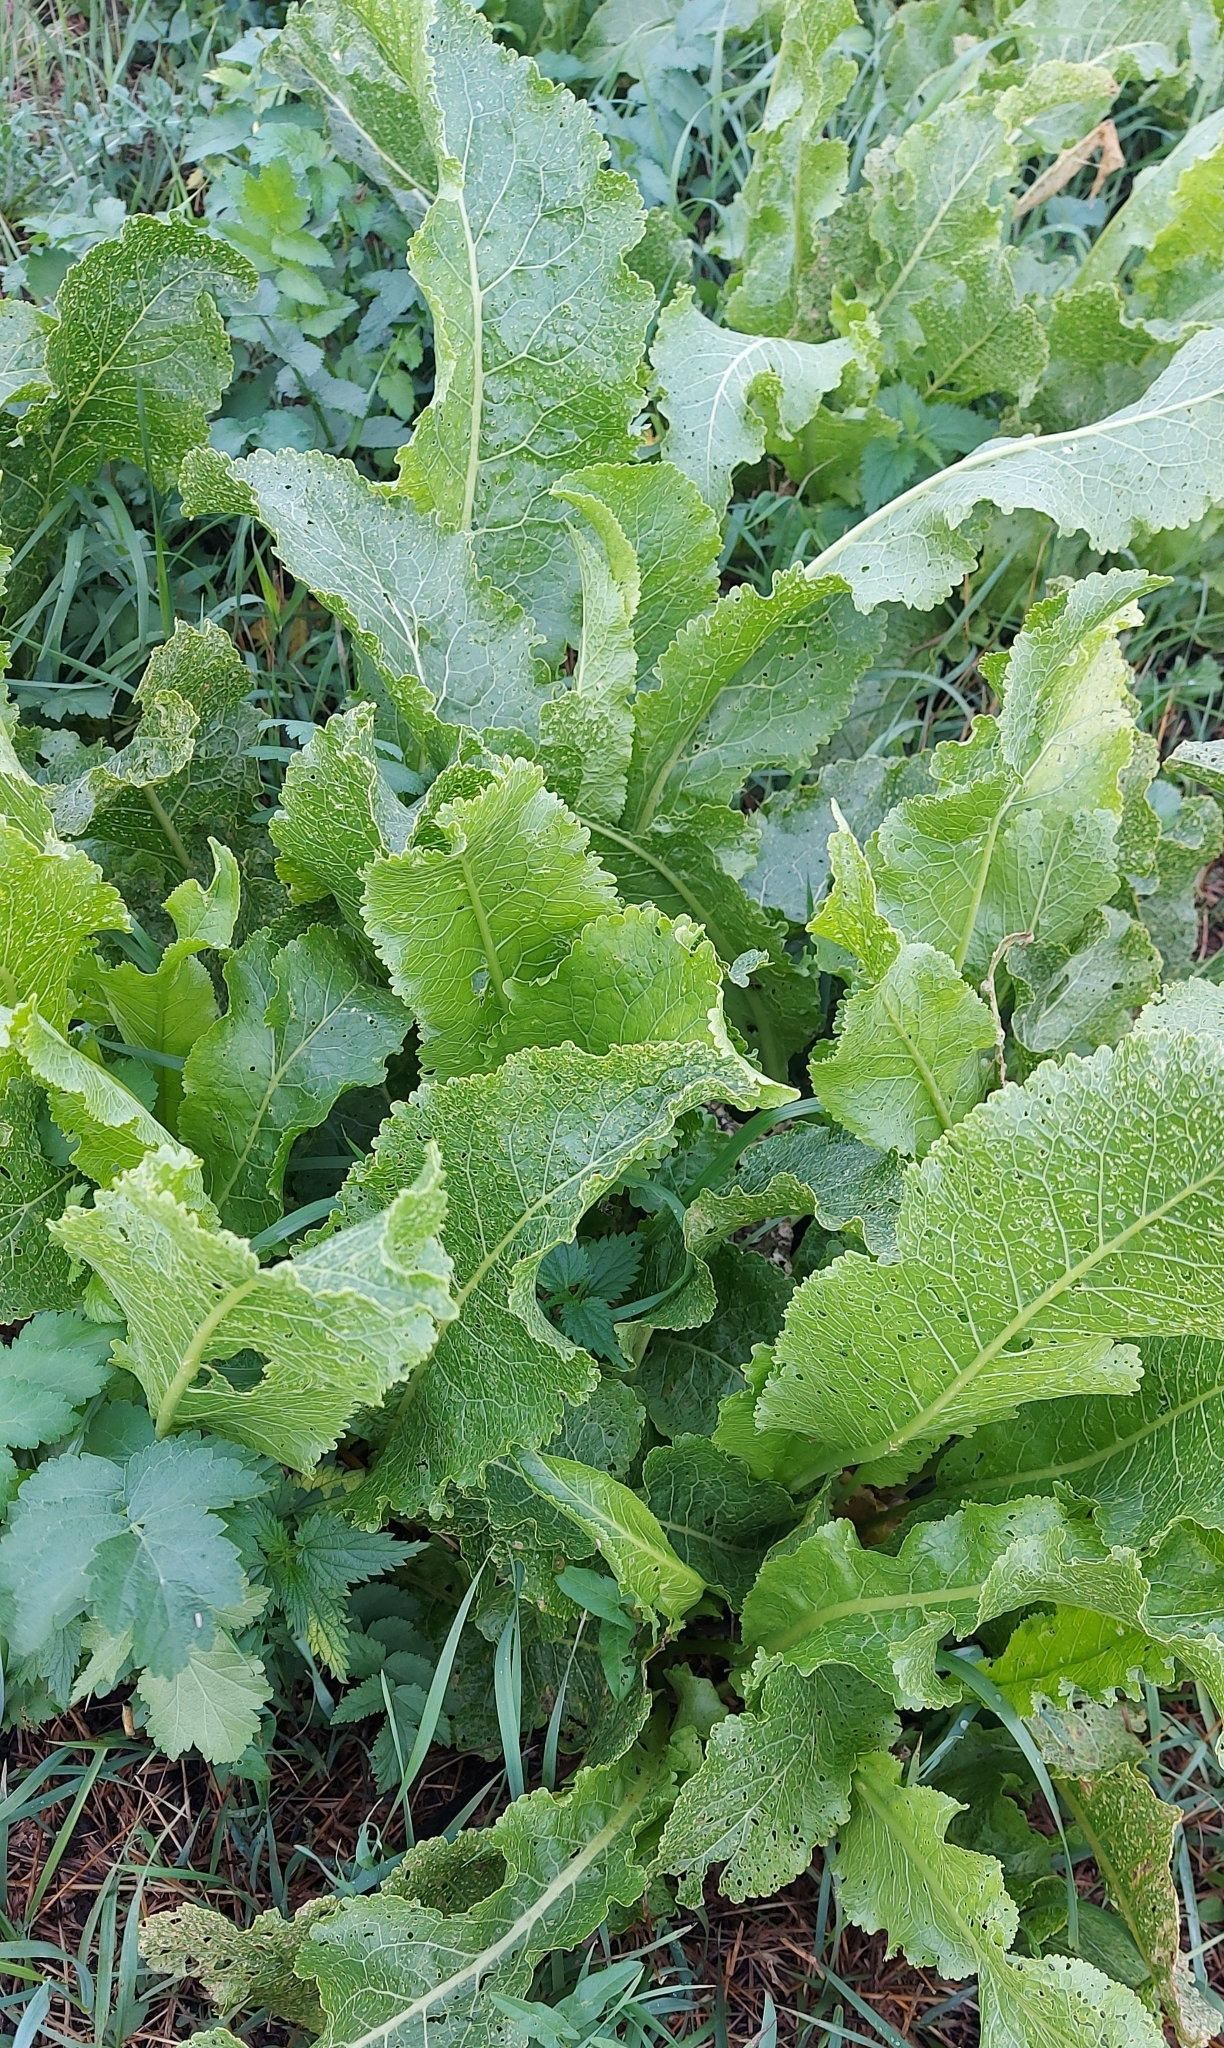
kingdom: Plantae
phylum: Tracheophyta
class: Magnoliopsida
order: Brassicales
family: Brassicaceae
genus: Armoracia
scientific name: Armoracia rusticana
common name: Horseradish
